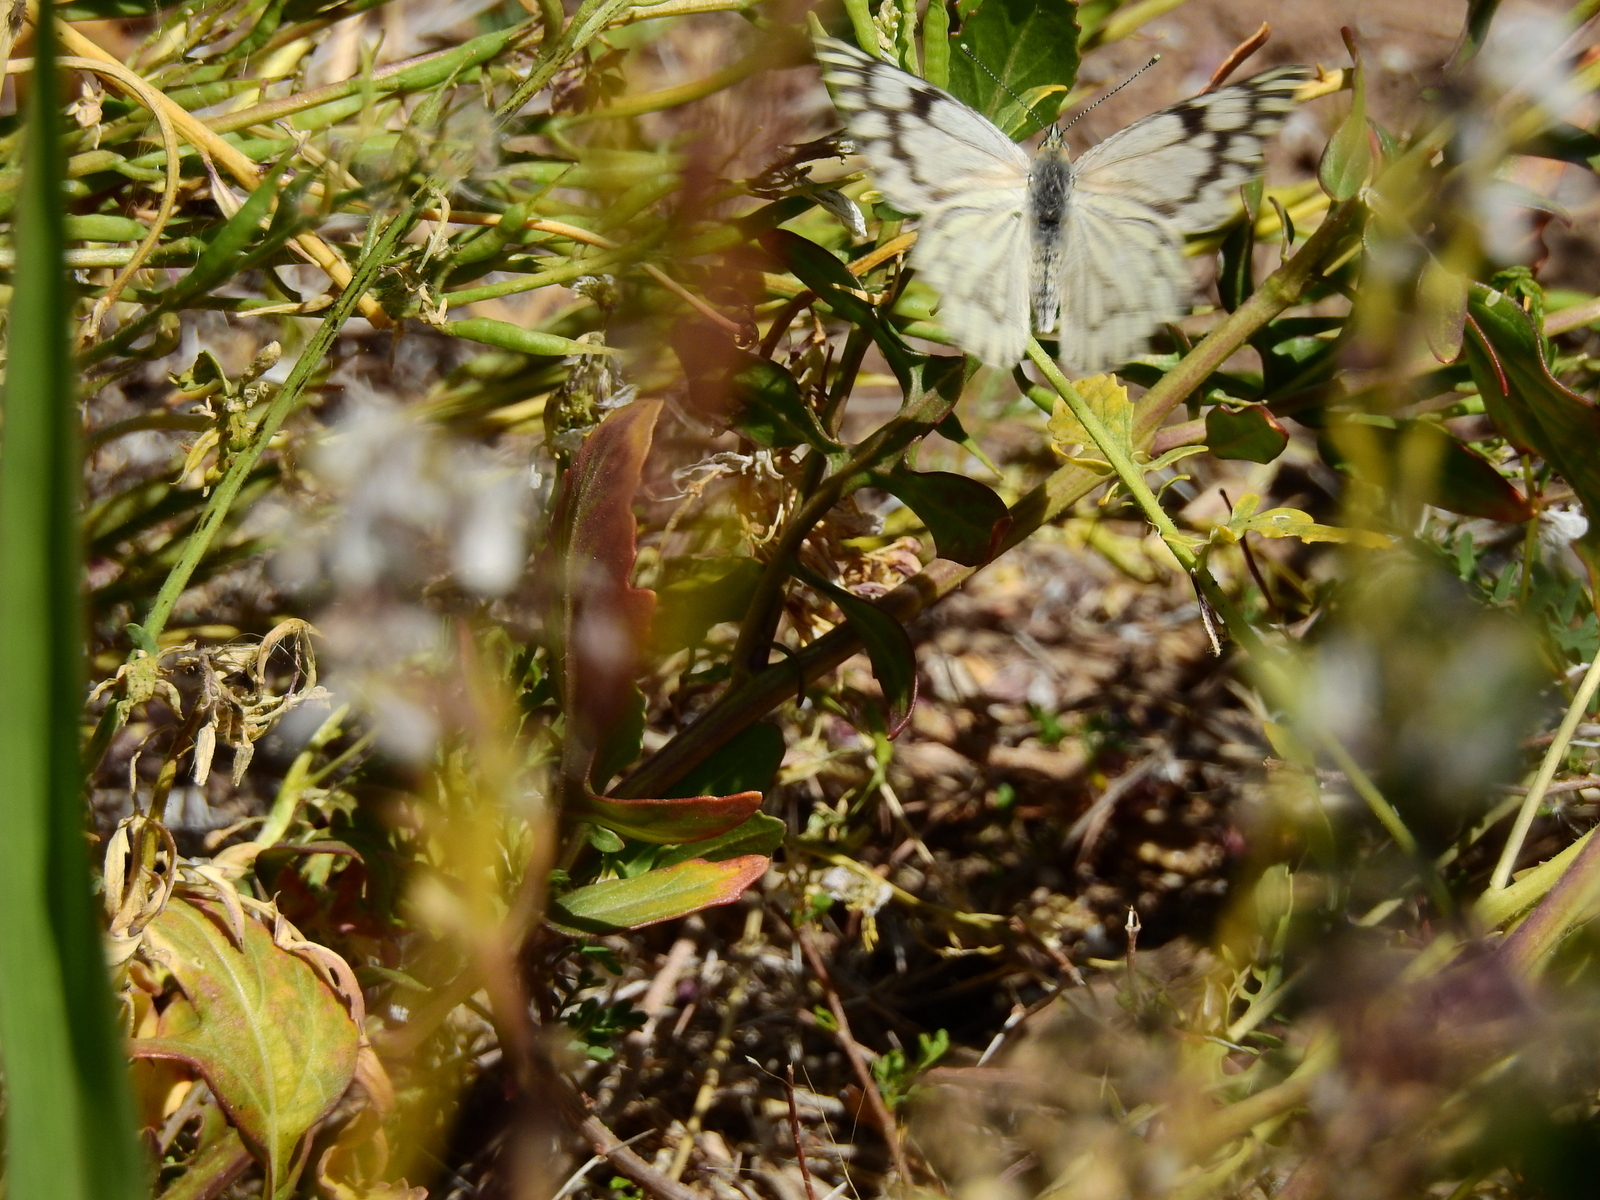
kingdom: Animalia
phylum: Arthropoda
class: Insecta
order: Lepidoptera
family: Pieridae
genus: Tatochila
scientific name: Tatochila mercedis
